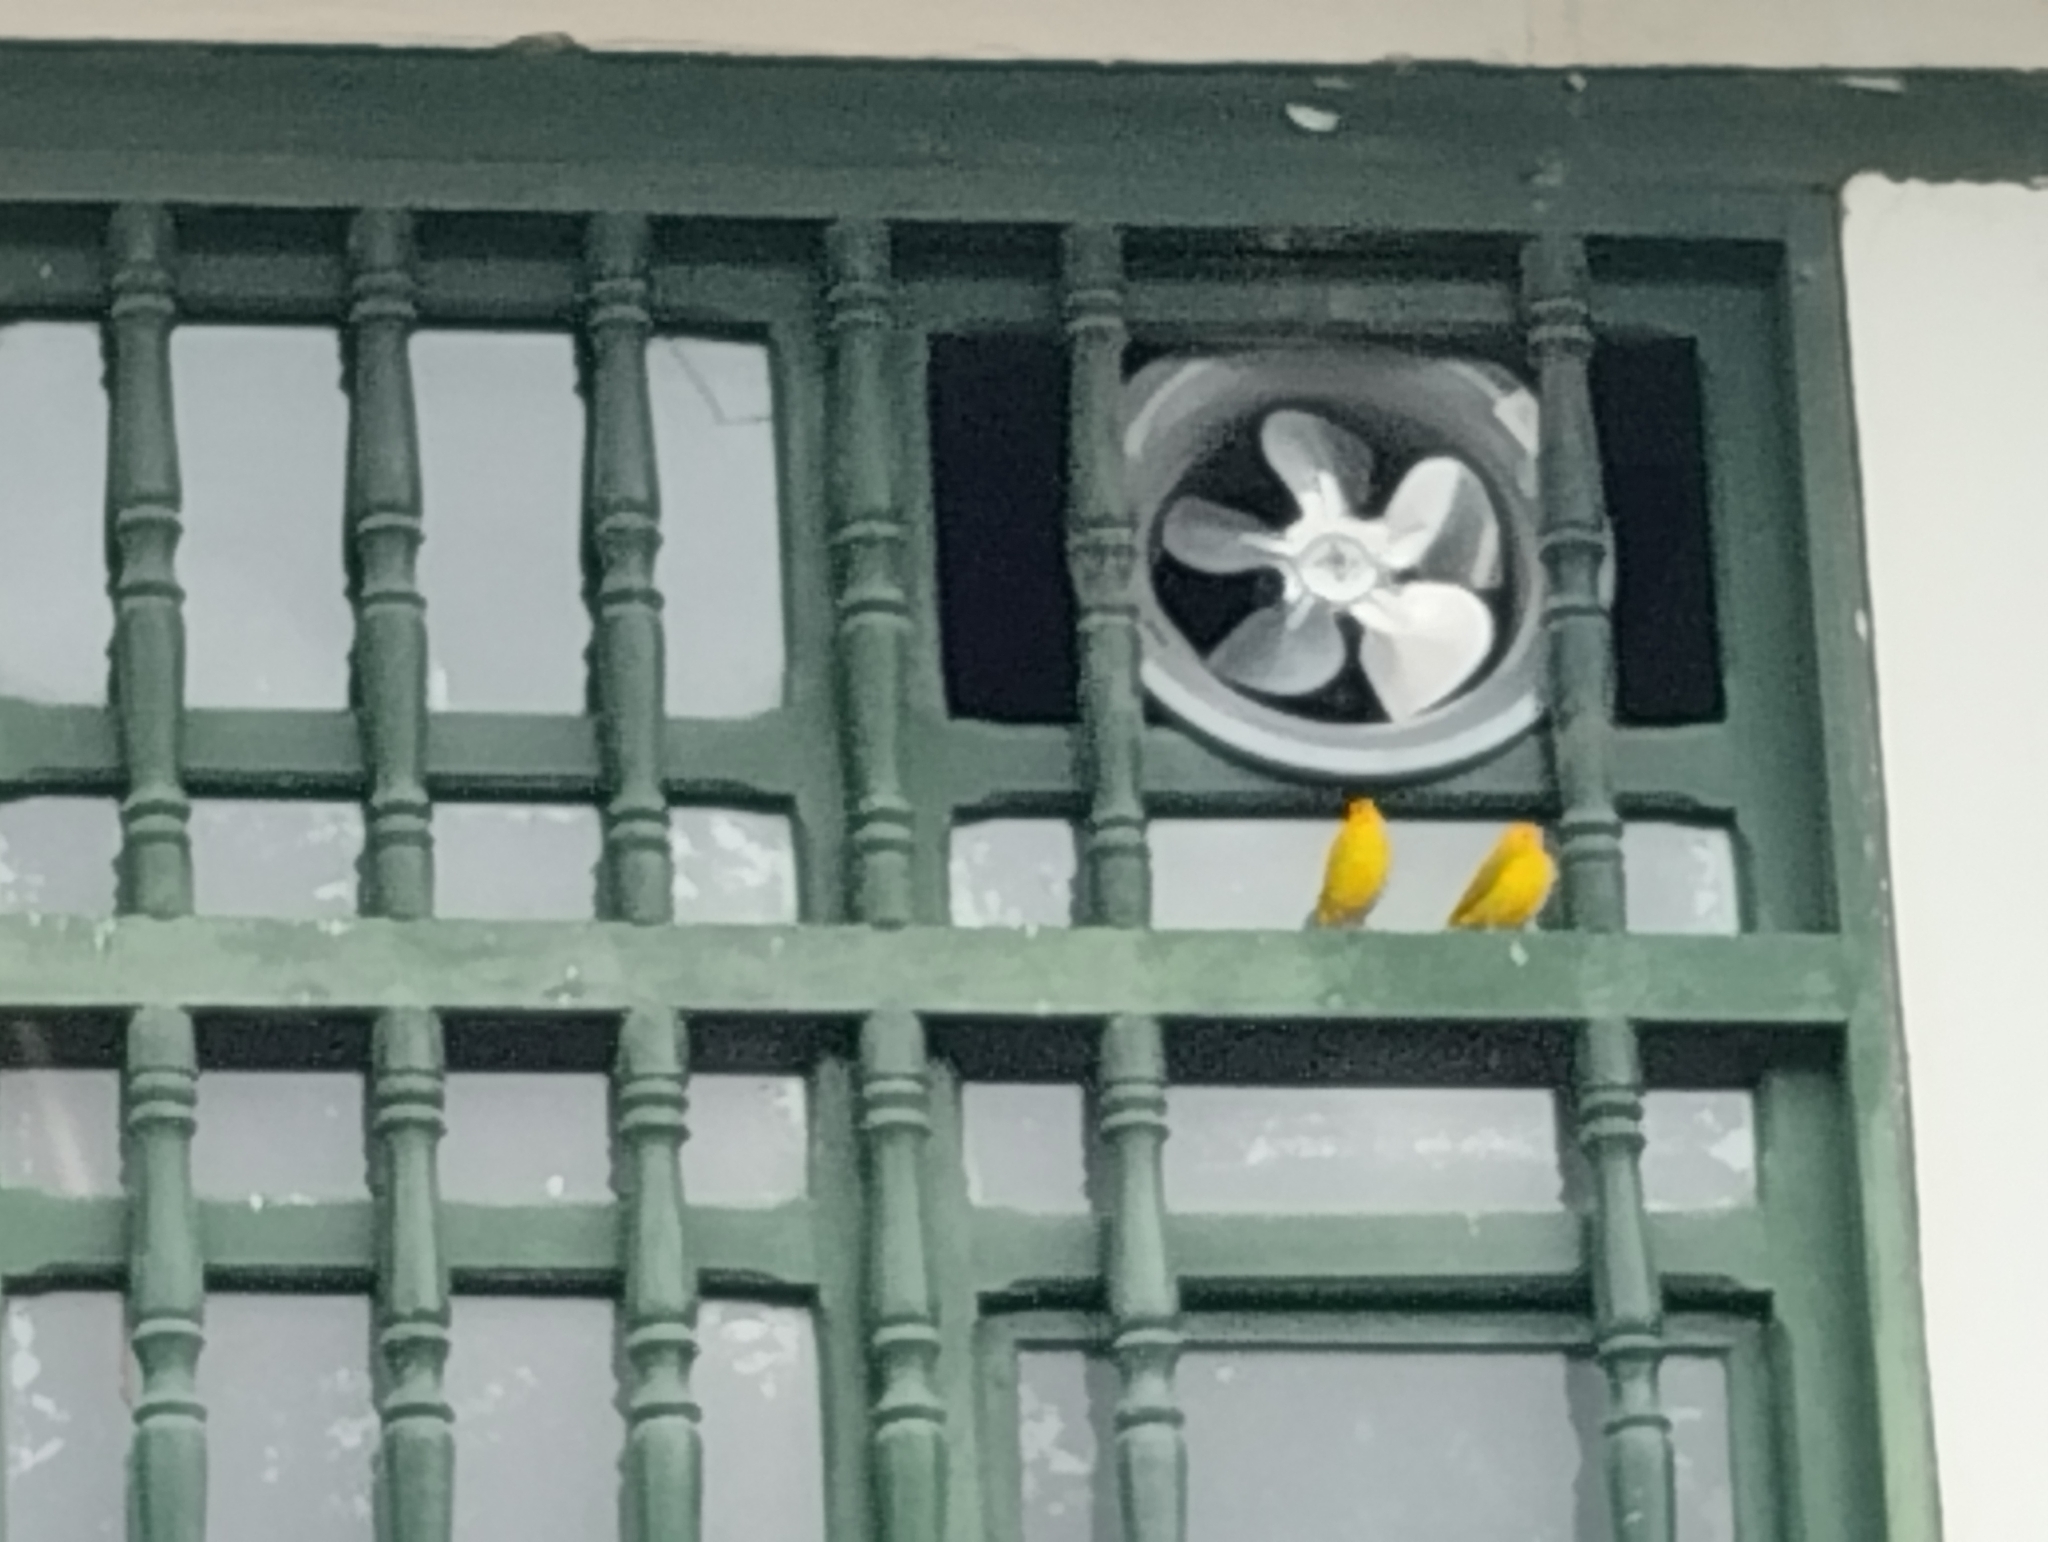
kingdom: Animalia
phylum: Chordata
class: Aves
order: Passeriformes
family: Thraupidae
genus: Sicalis
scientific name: Sicalis flaveola
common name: Saffron finch
